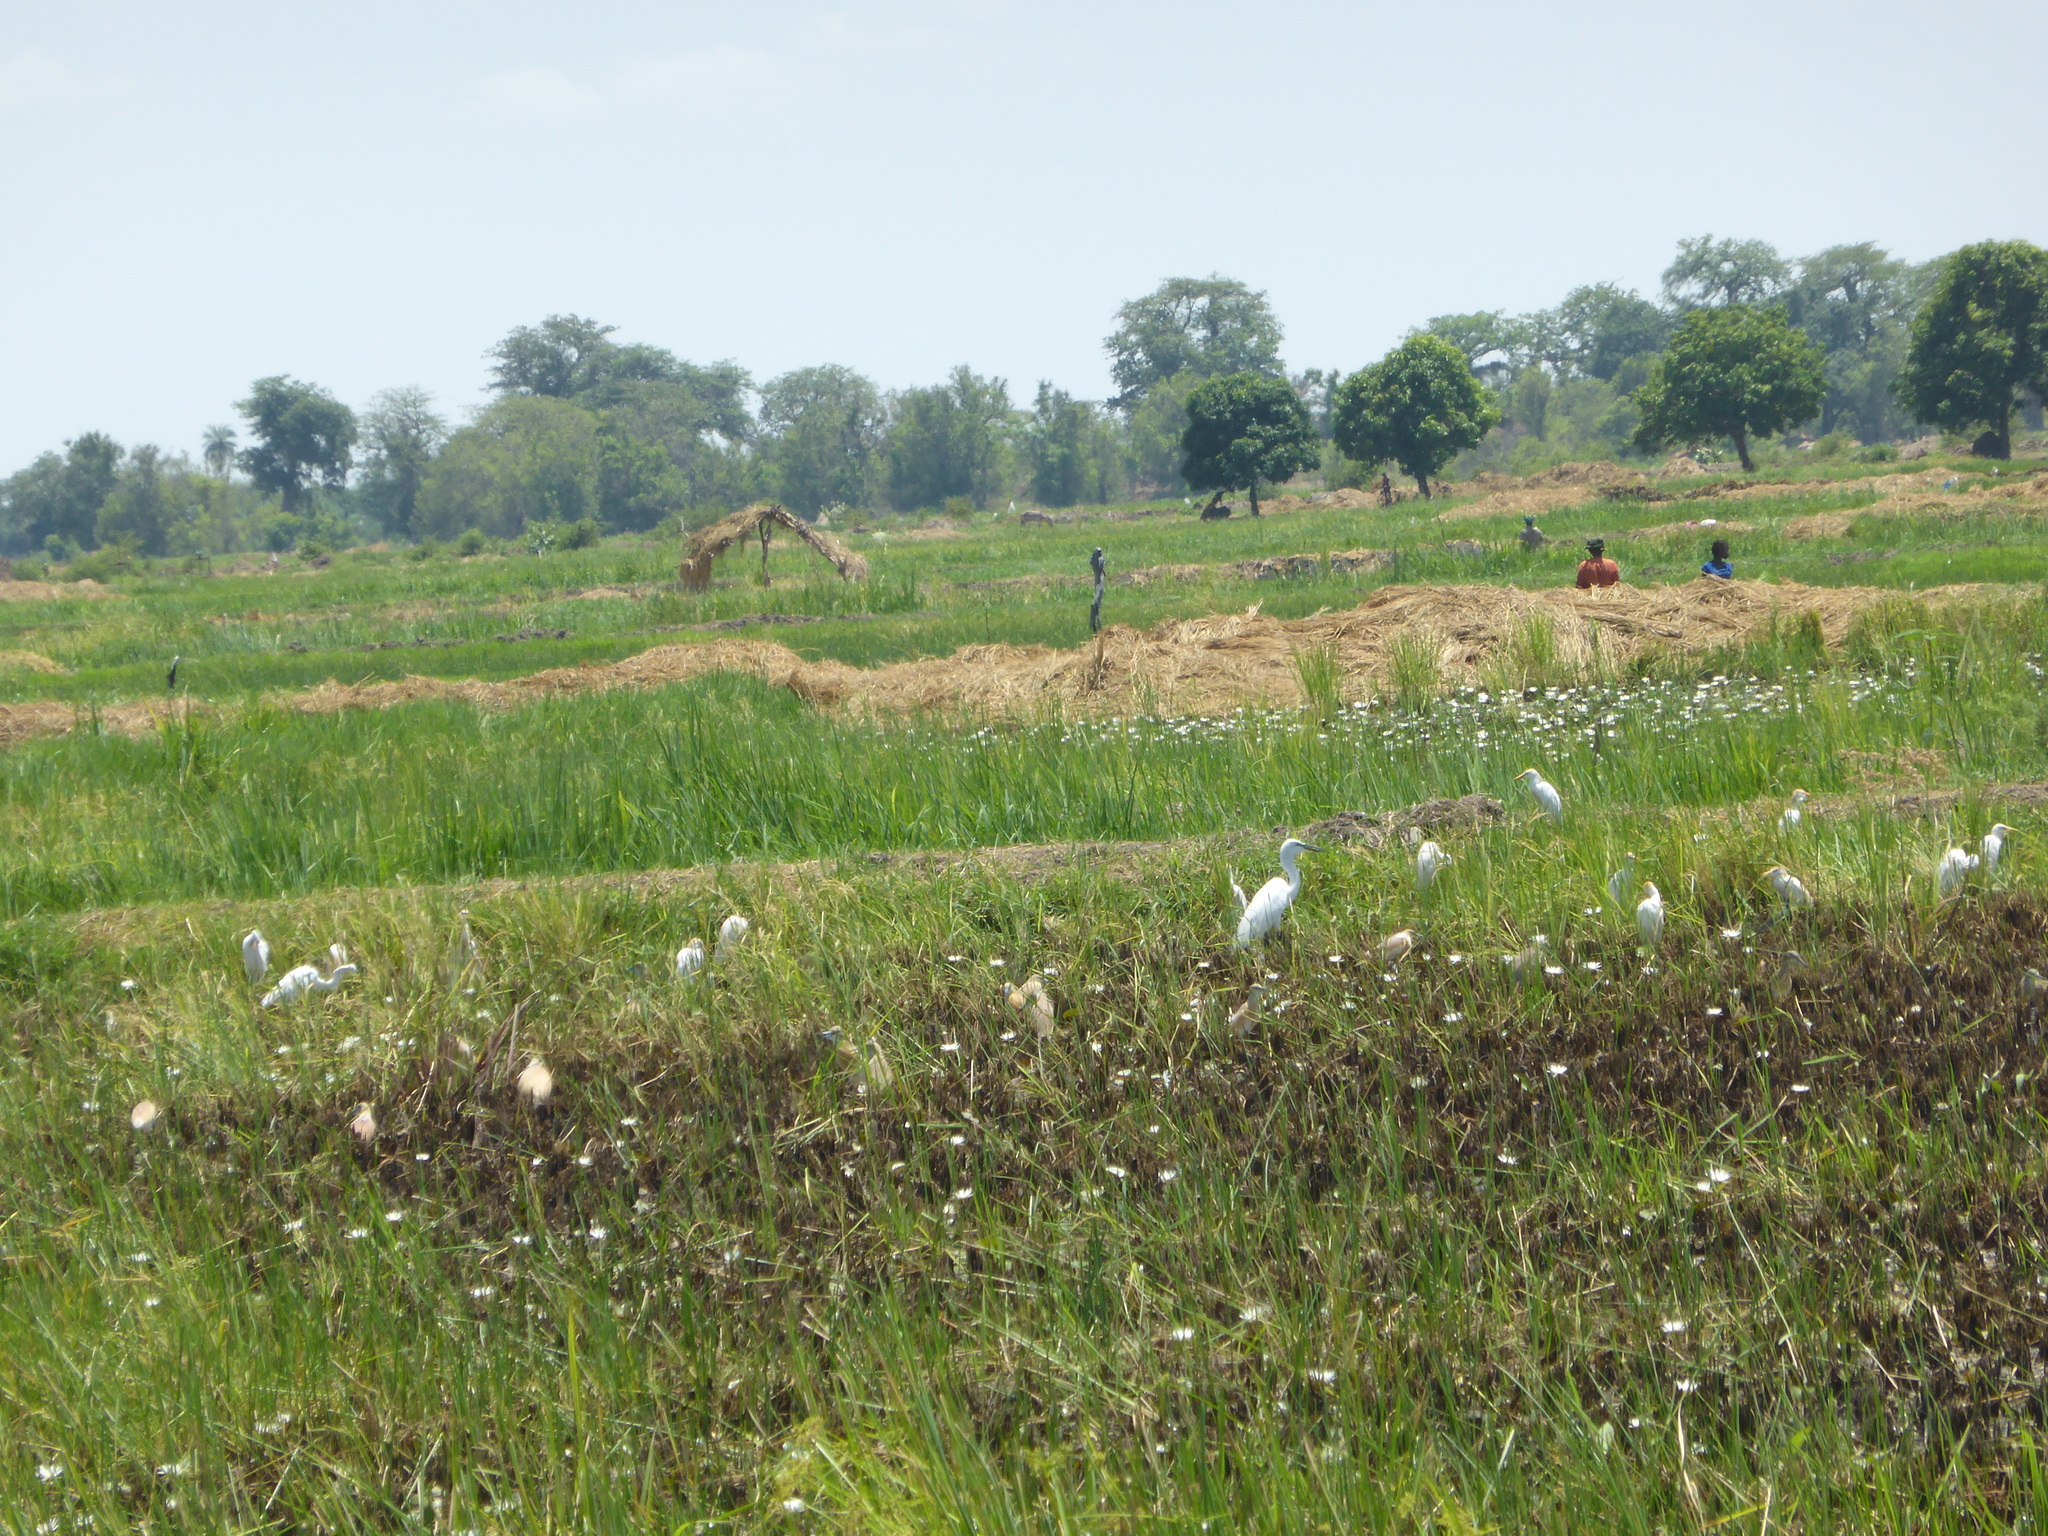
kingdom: Animalia
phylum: Chordata
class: Aves
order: Pelecaniformes
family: Ardeidae
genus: Bubulcus
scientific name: Bubulcus ibis
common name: Cattle egret
